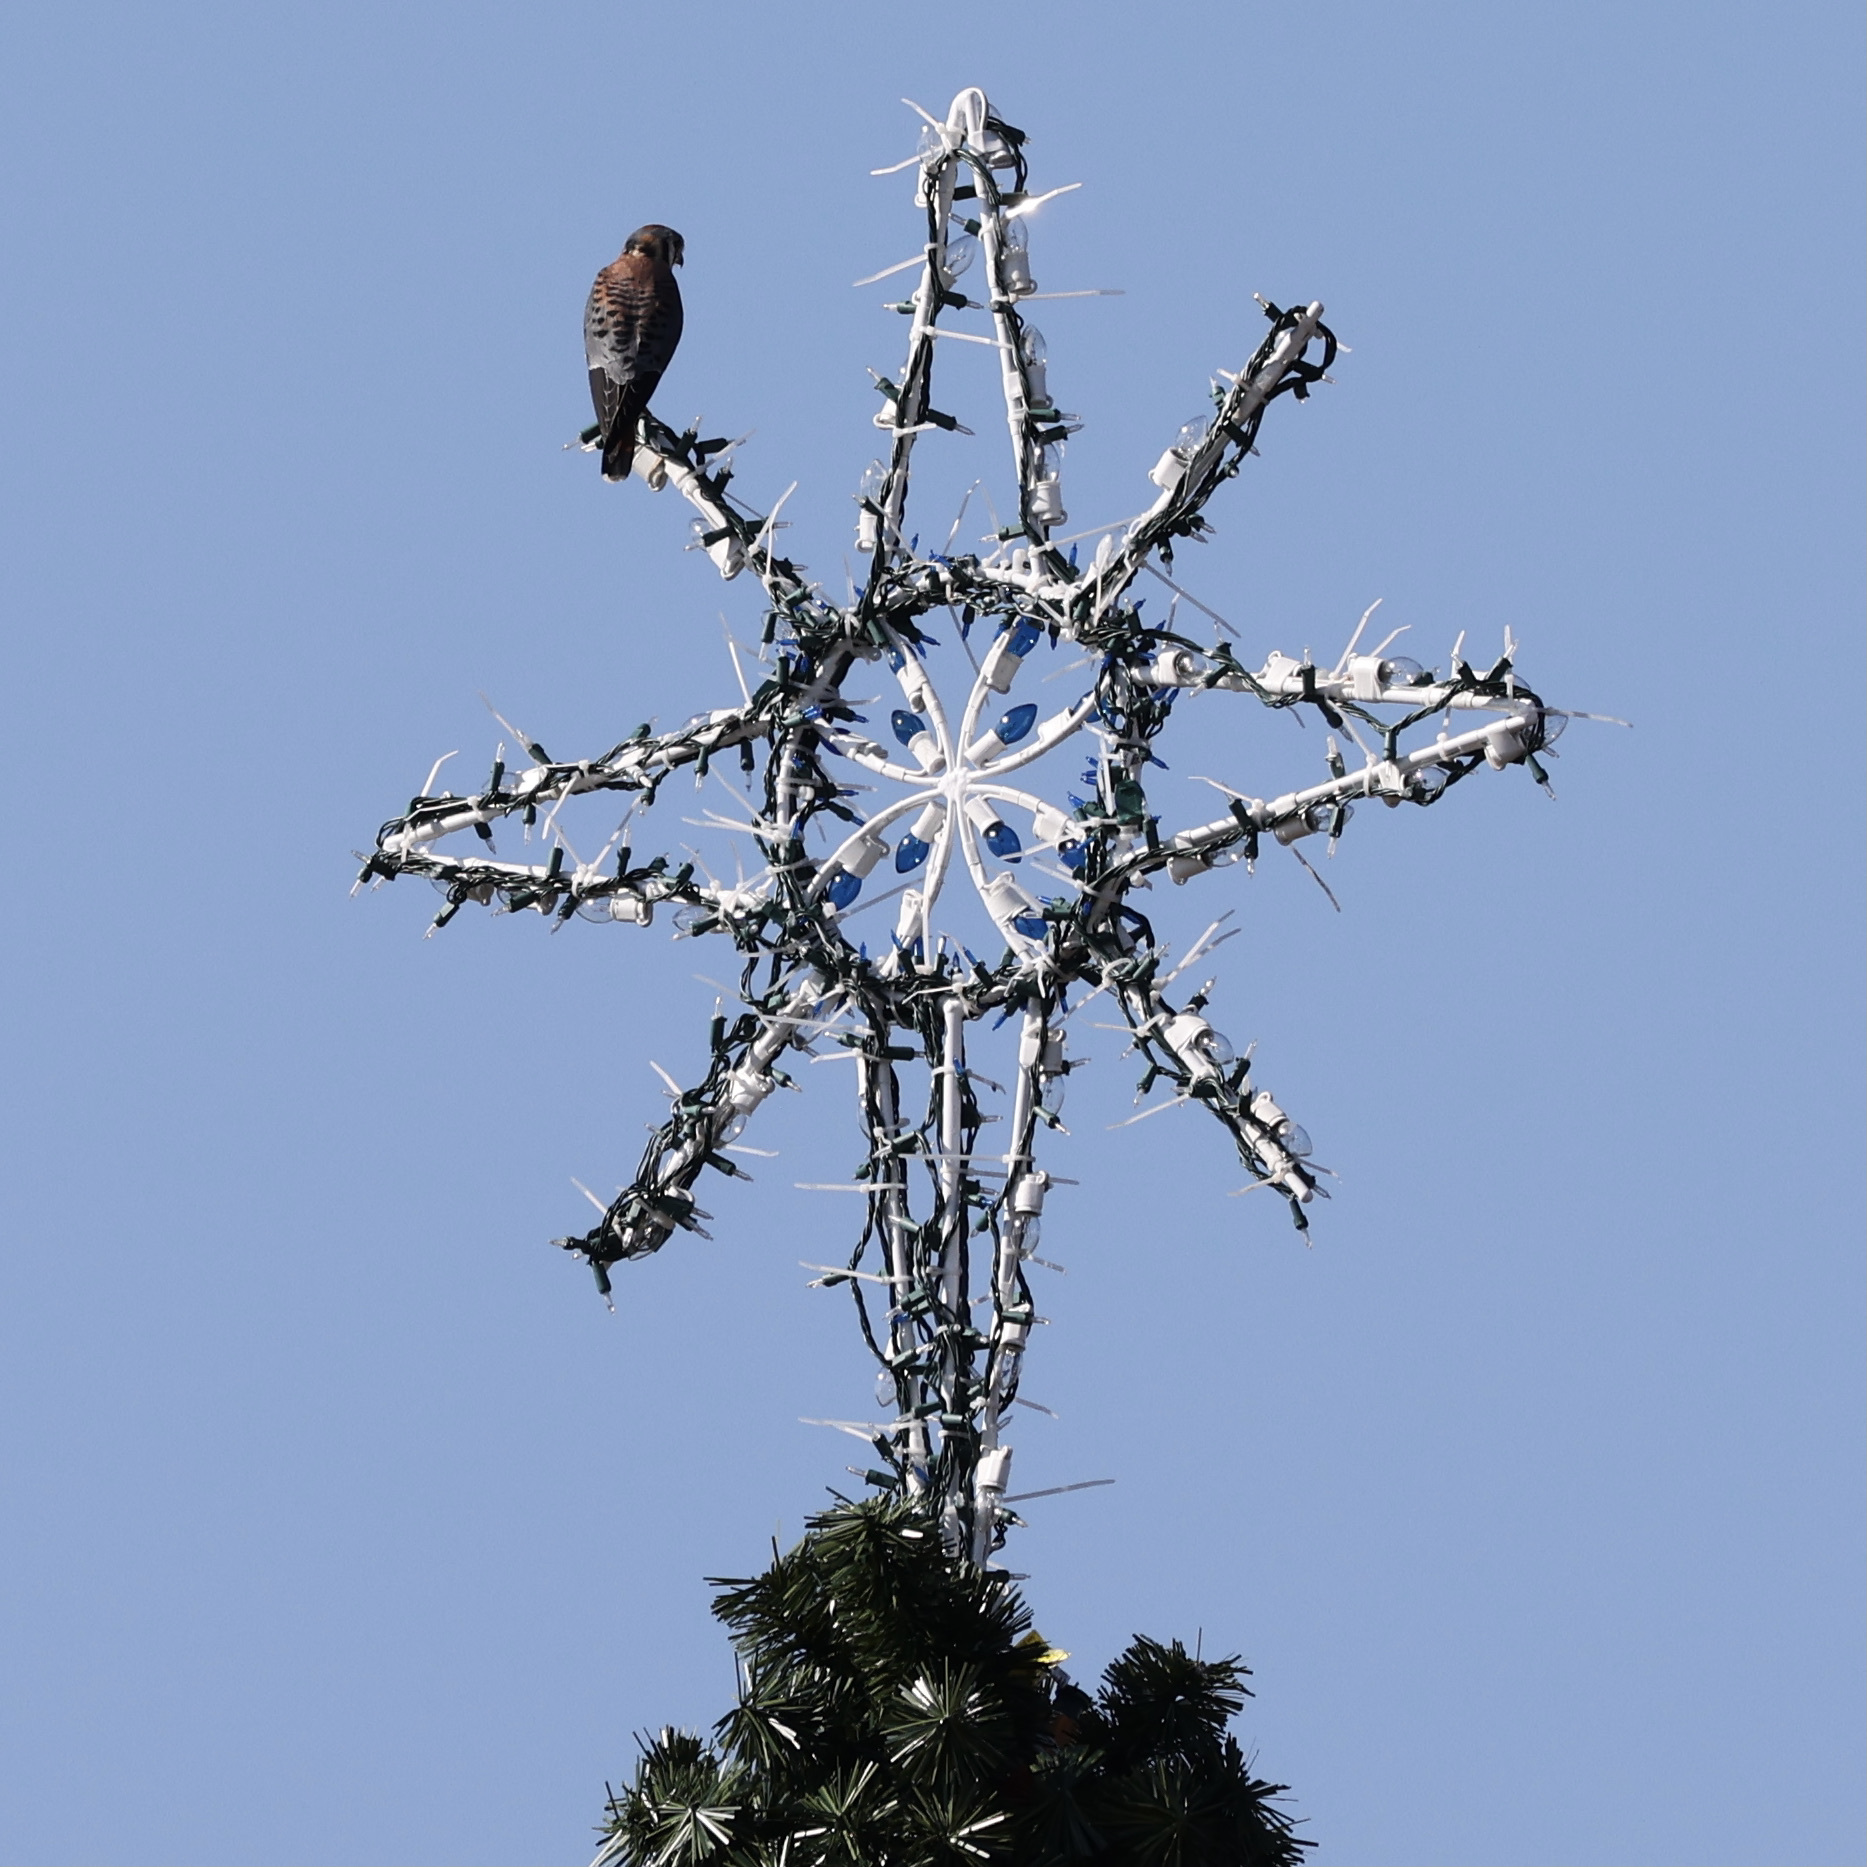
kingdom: Animalia
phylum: Chordata
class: Aves
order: Falconiformes
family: Falconidae
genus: Falco
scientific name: Falco sparverius
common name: American kestrel
